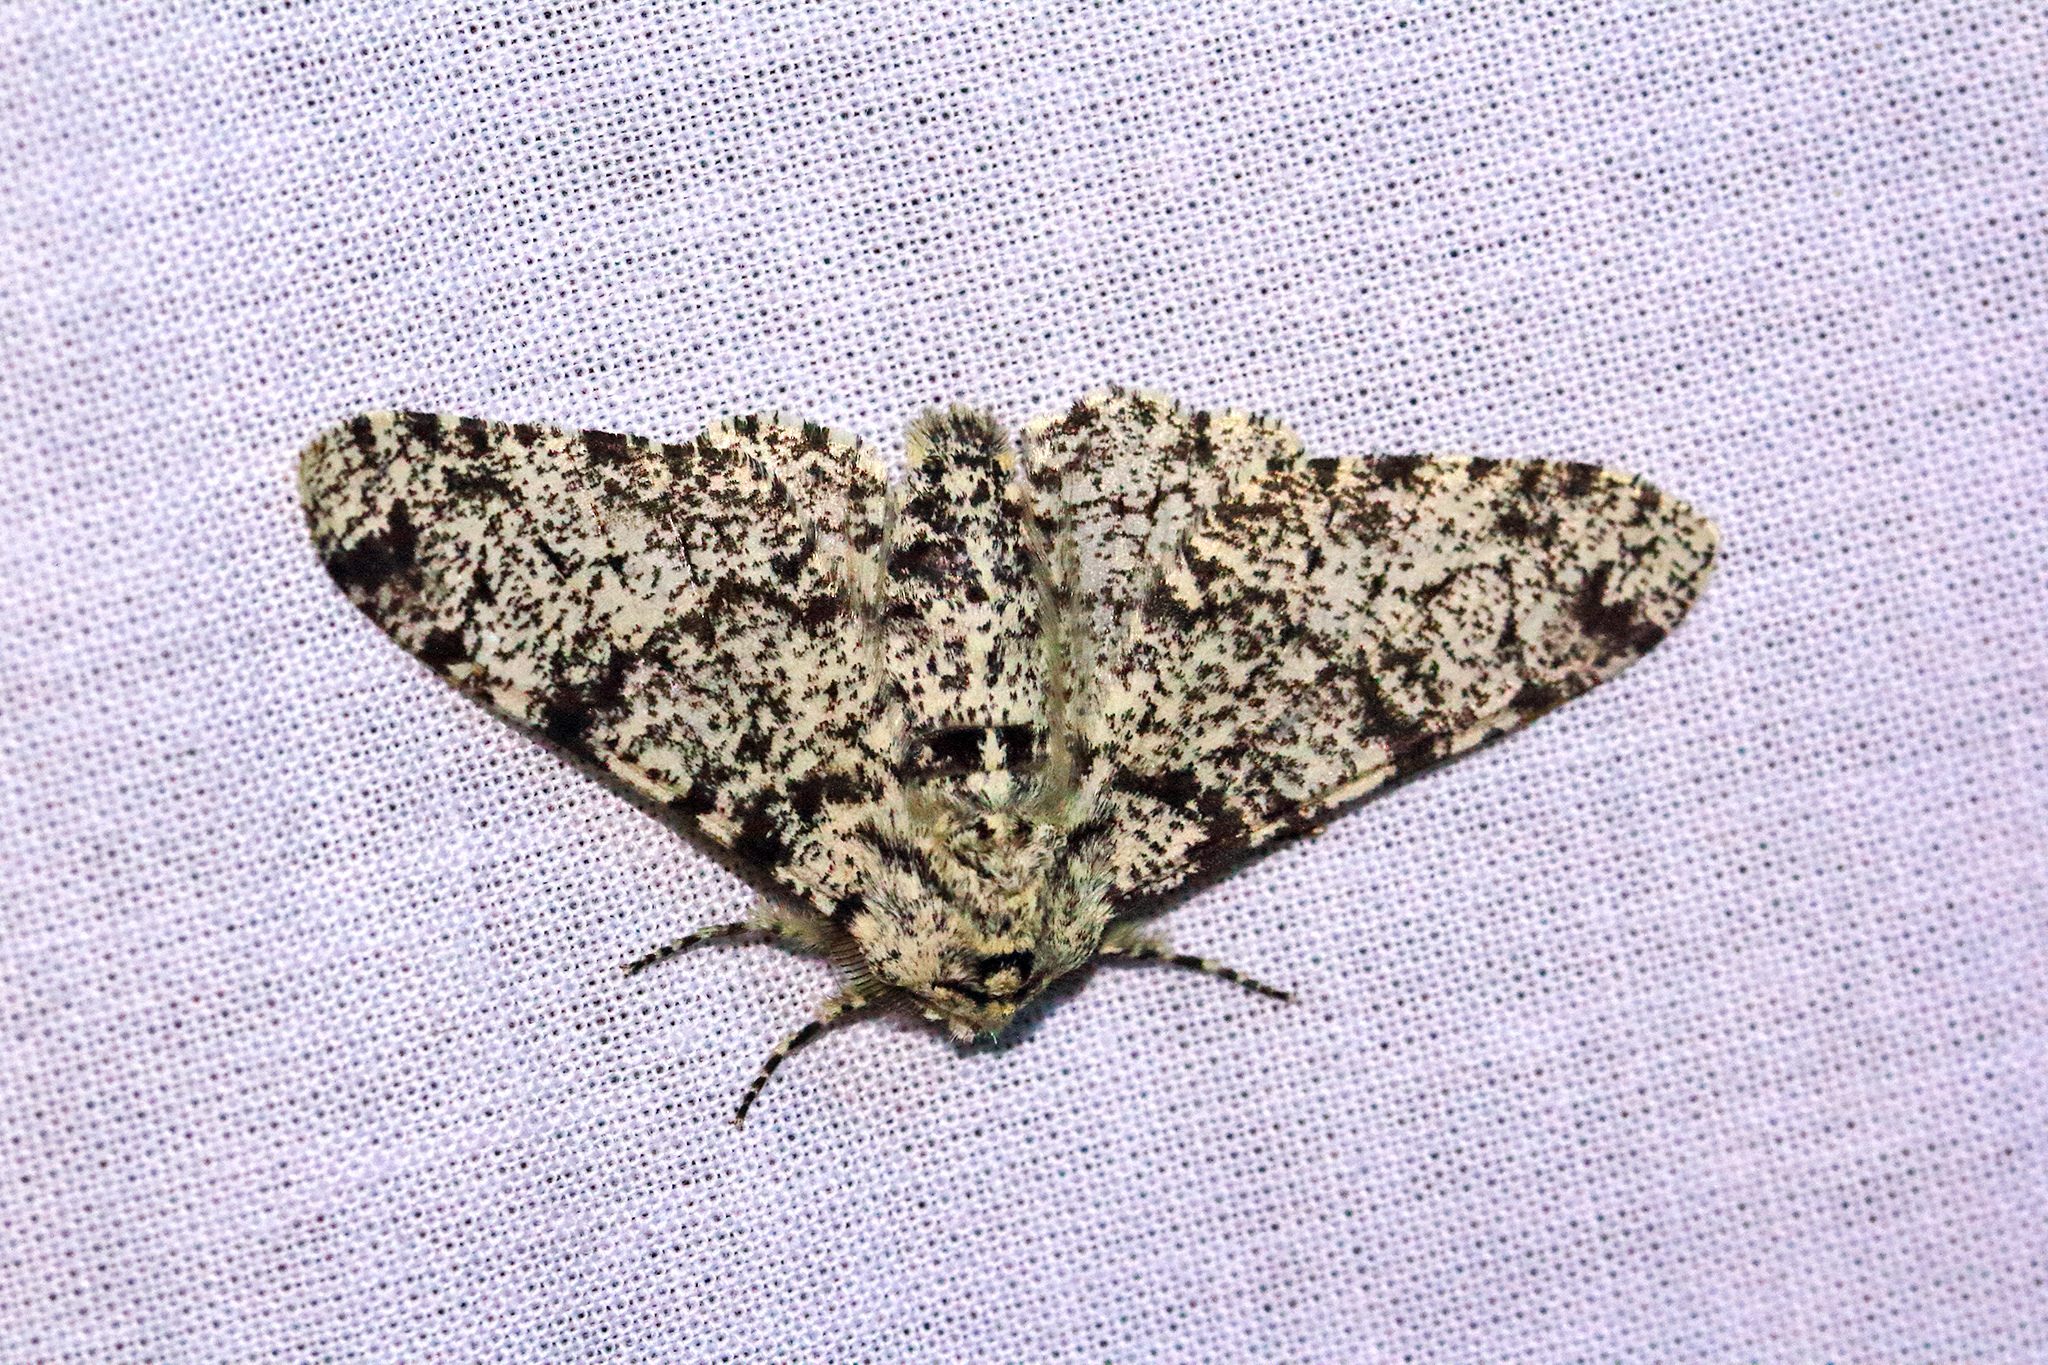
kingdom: Animalia
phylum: Arthropoda
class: Insecta
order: Lepidoptera
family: Geometridae
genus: Biston
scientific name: Biston betularia
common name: Peppered moth
